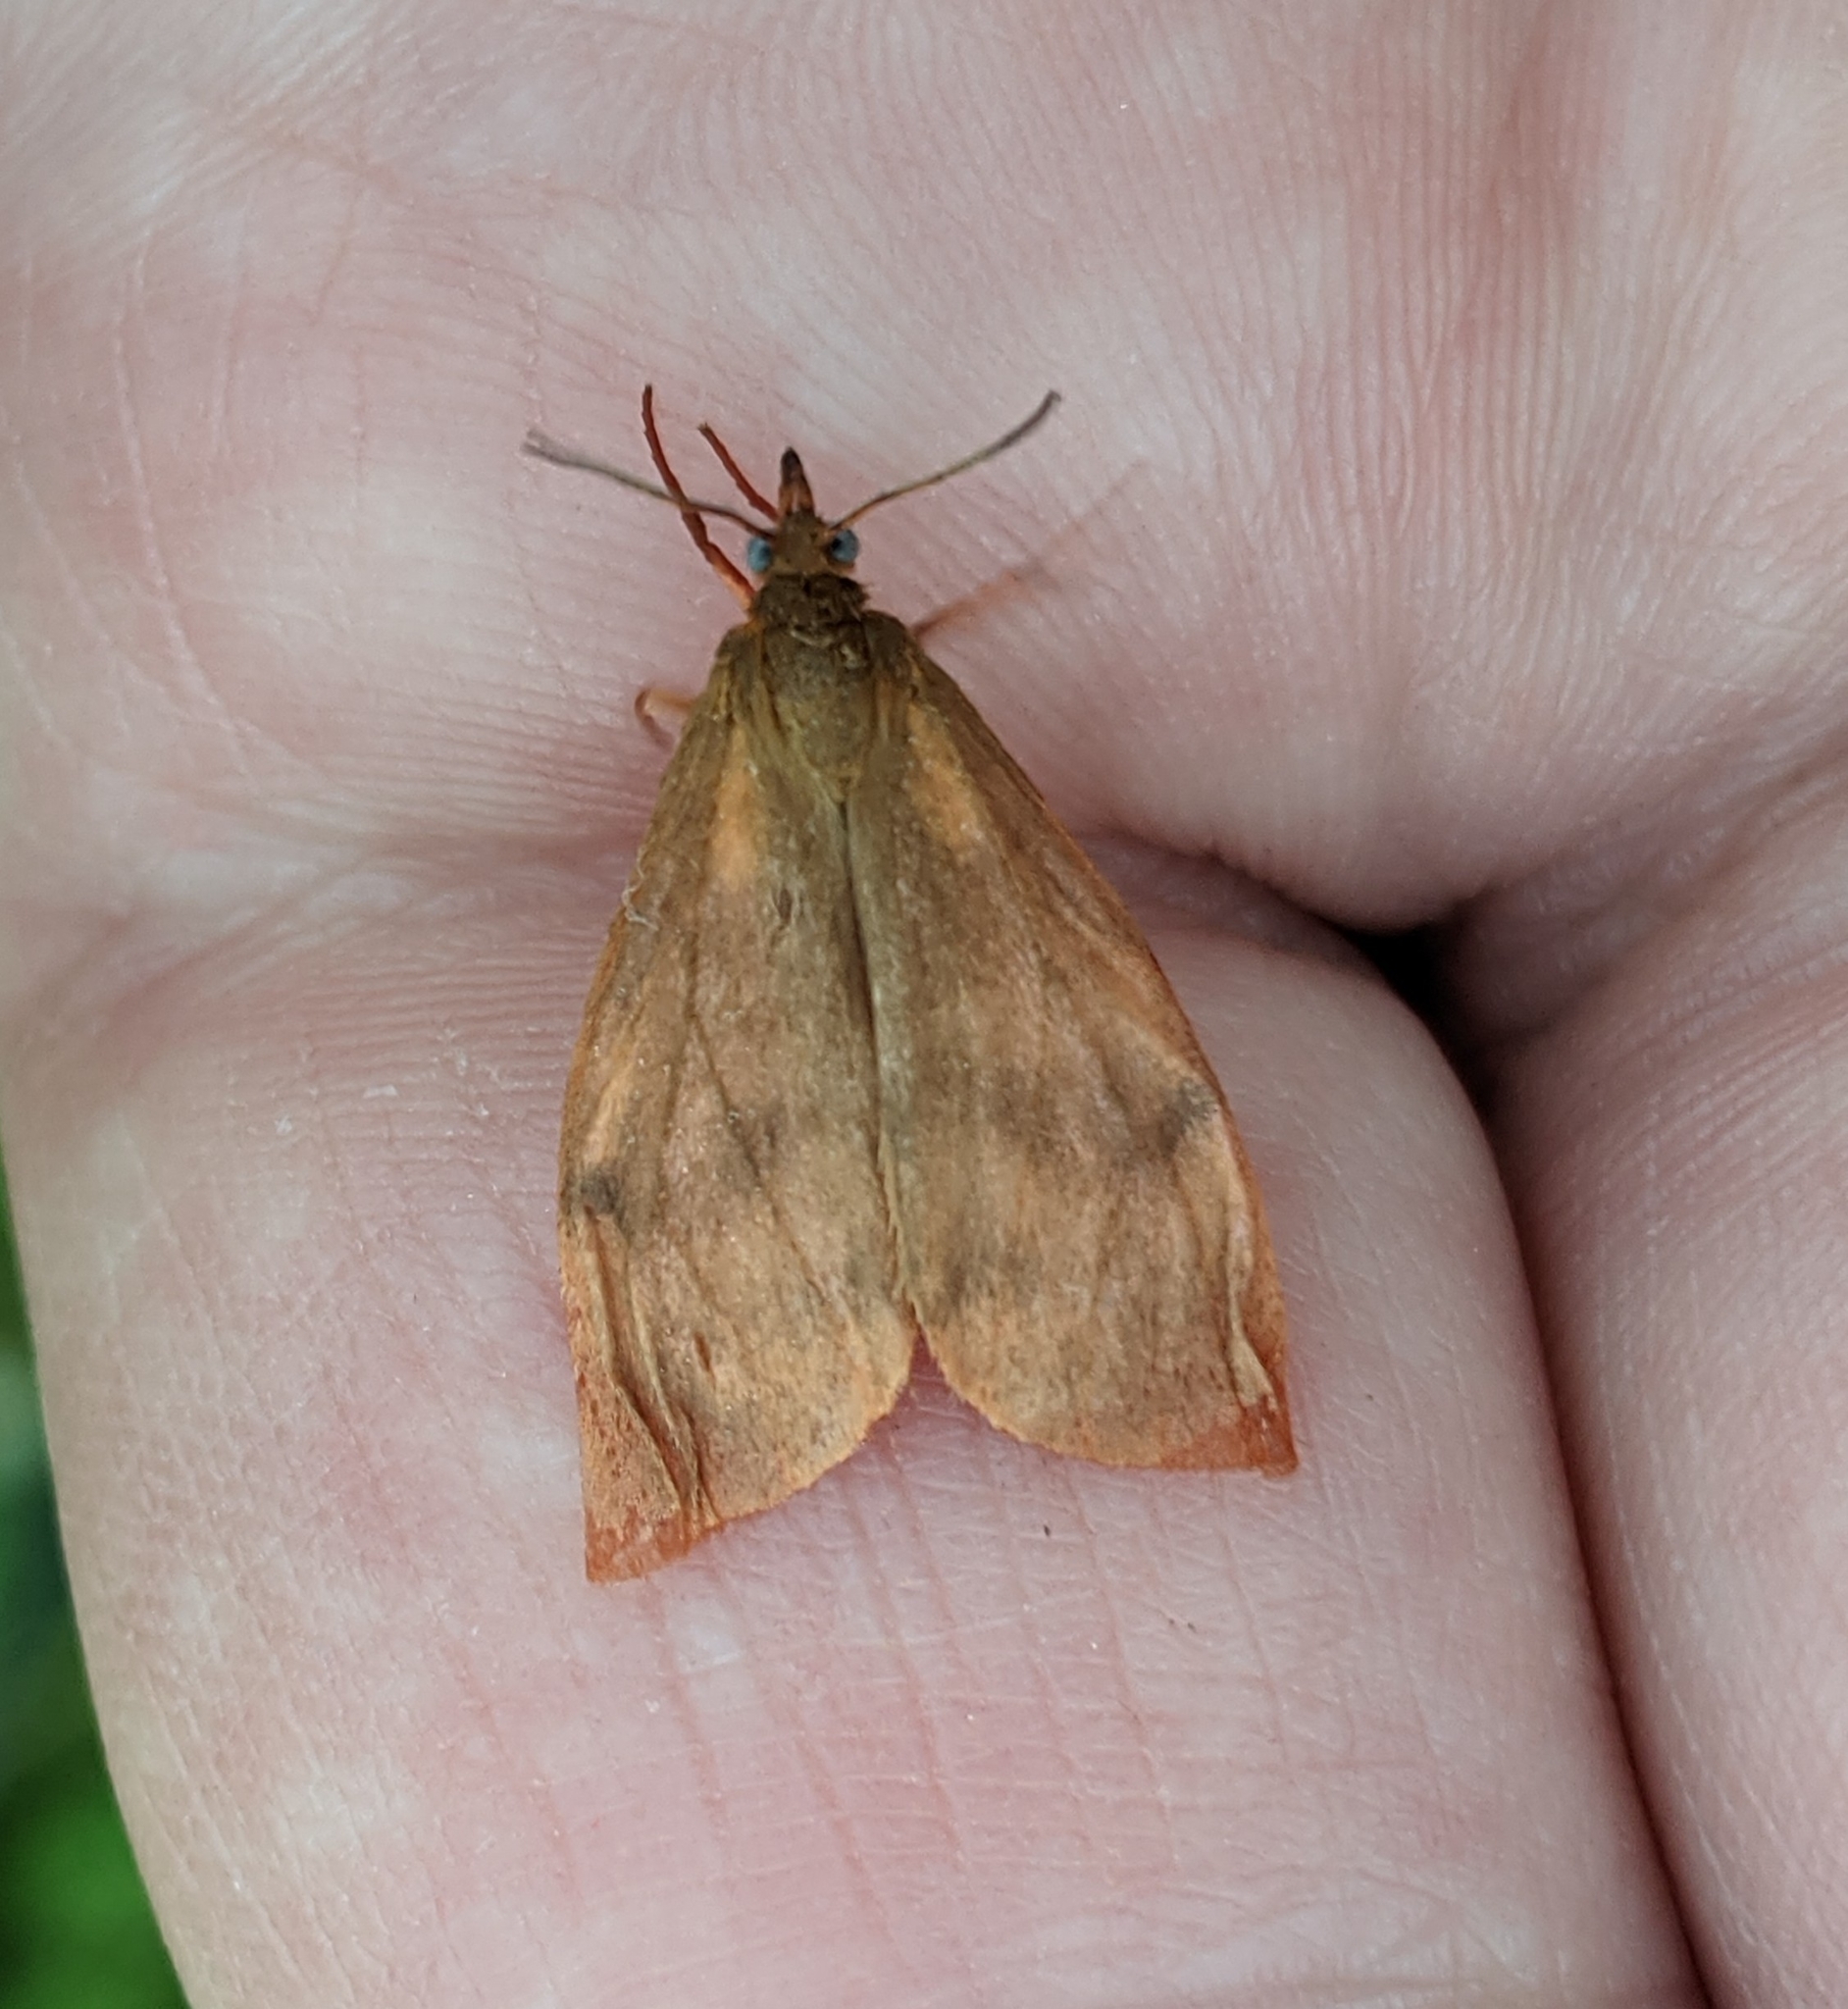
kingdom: Animalia
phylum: Arthropoda
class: Insecta
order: Lepidoptera
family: Erebidae
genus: Virbia
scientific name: Virbia ferruginosa
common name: Rusty virbia moth
